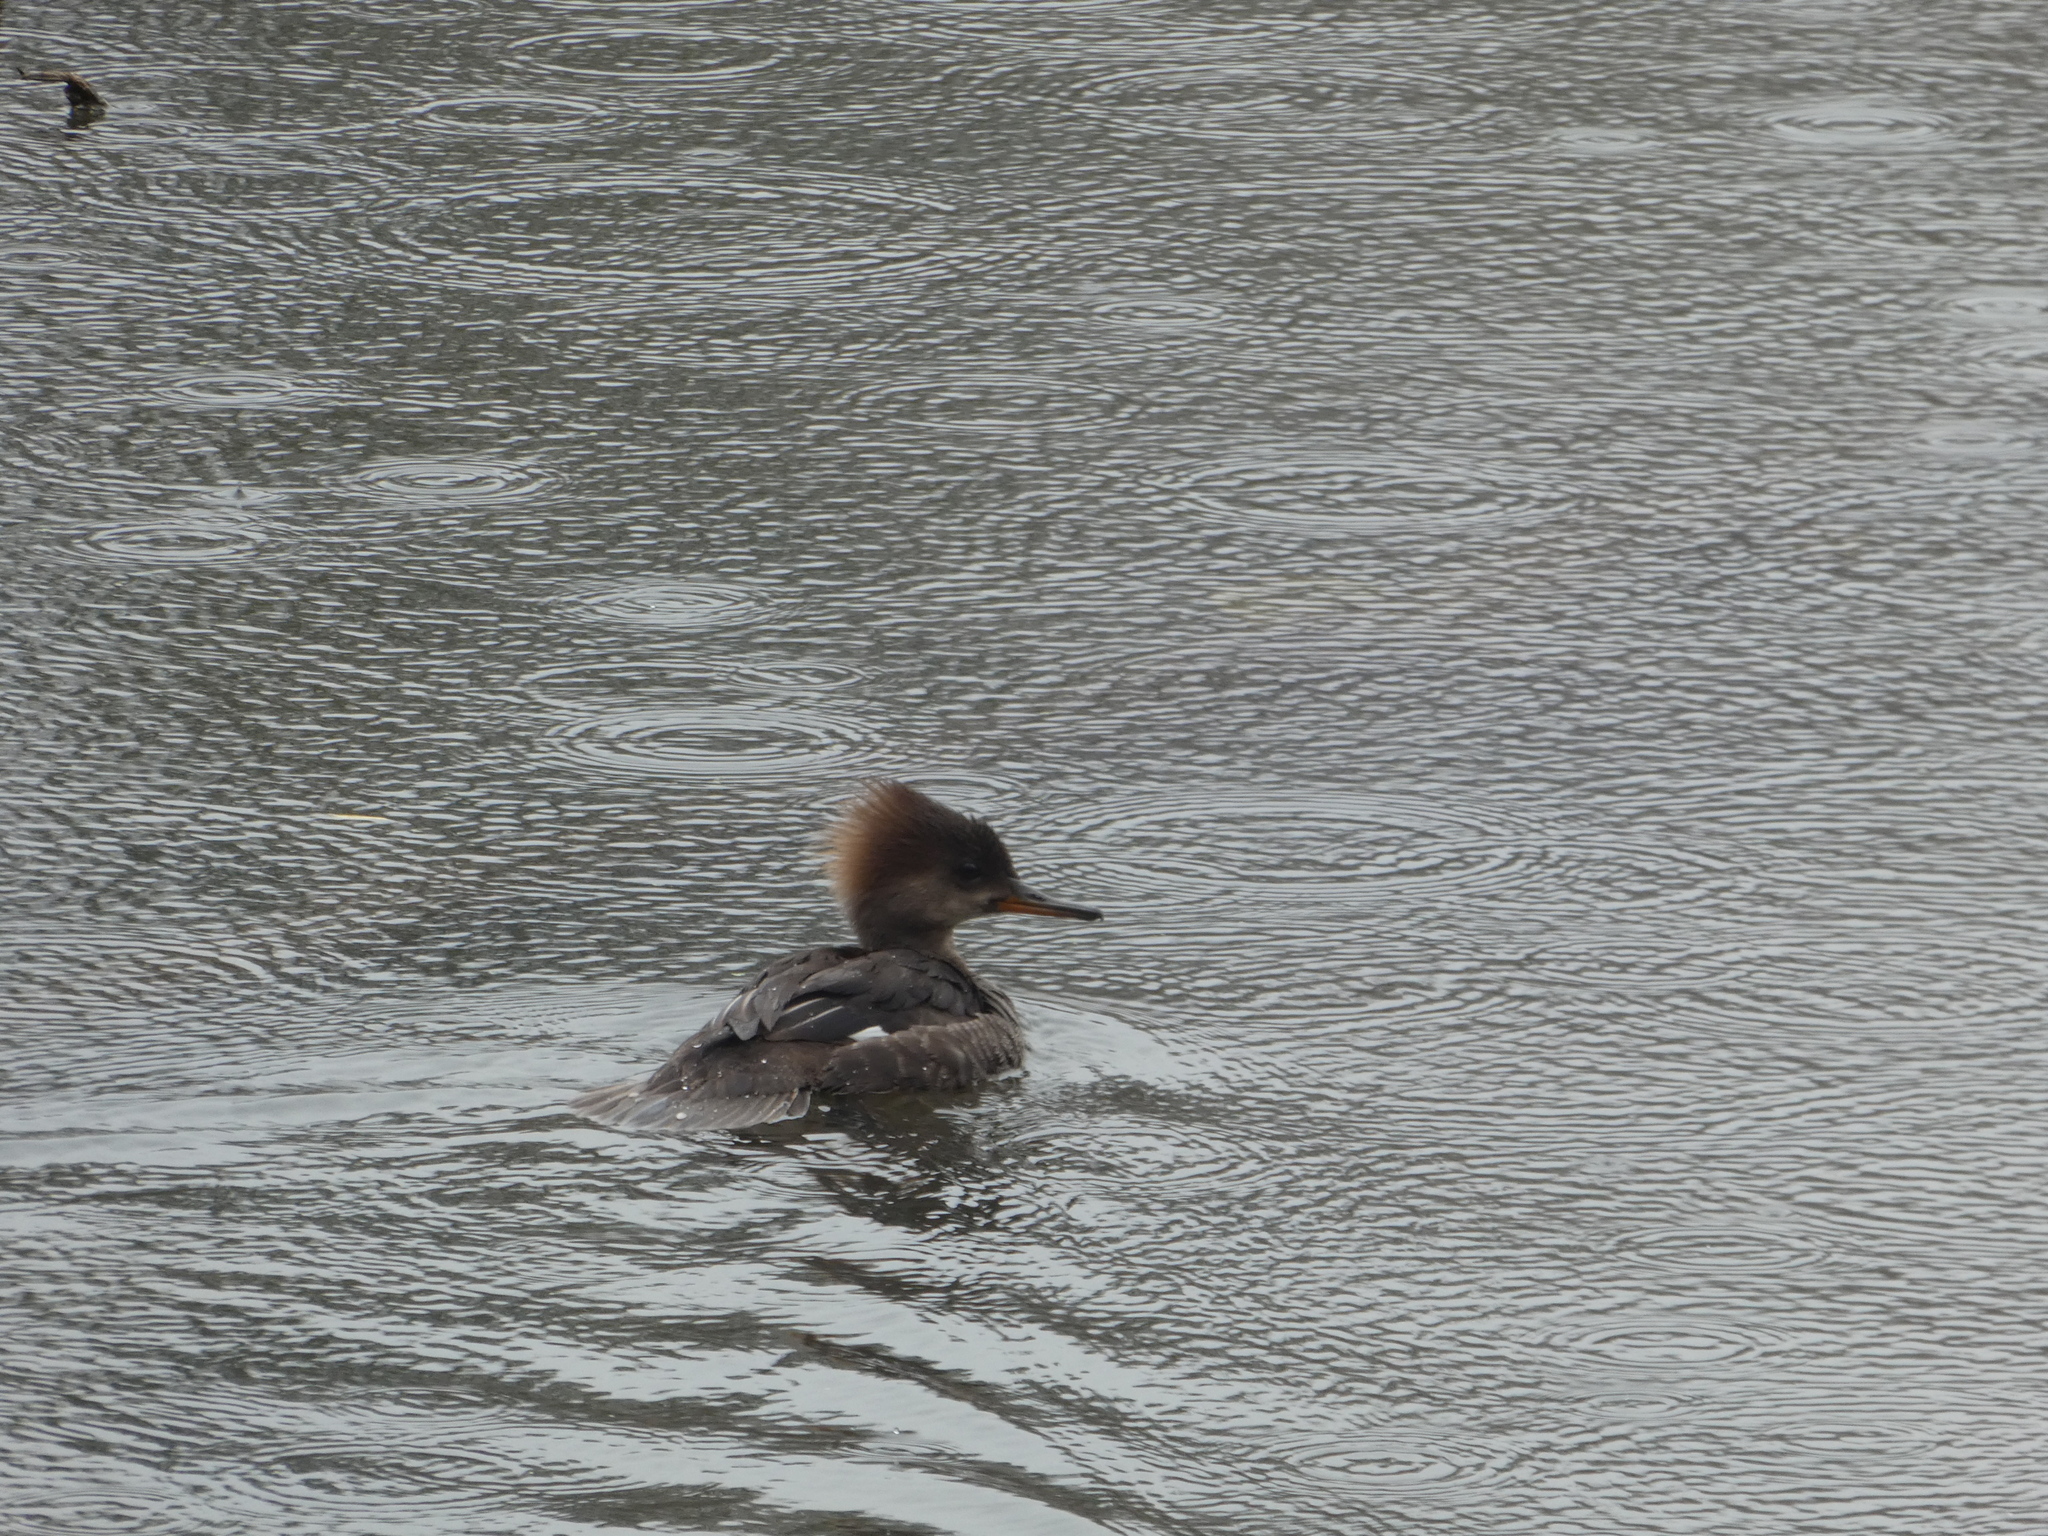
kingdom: Animalia
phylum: Chordata
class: Aves
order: Anseriformes
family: Anatidae
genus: Lophodytes
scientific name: Lophodytes cucullatus
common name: Hooded merganser
